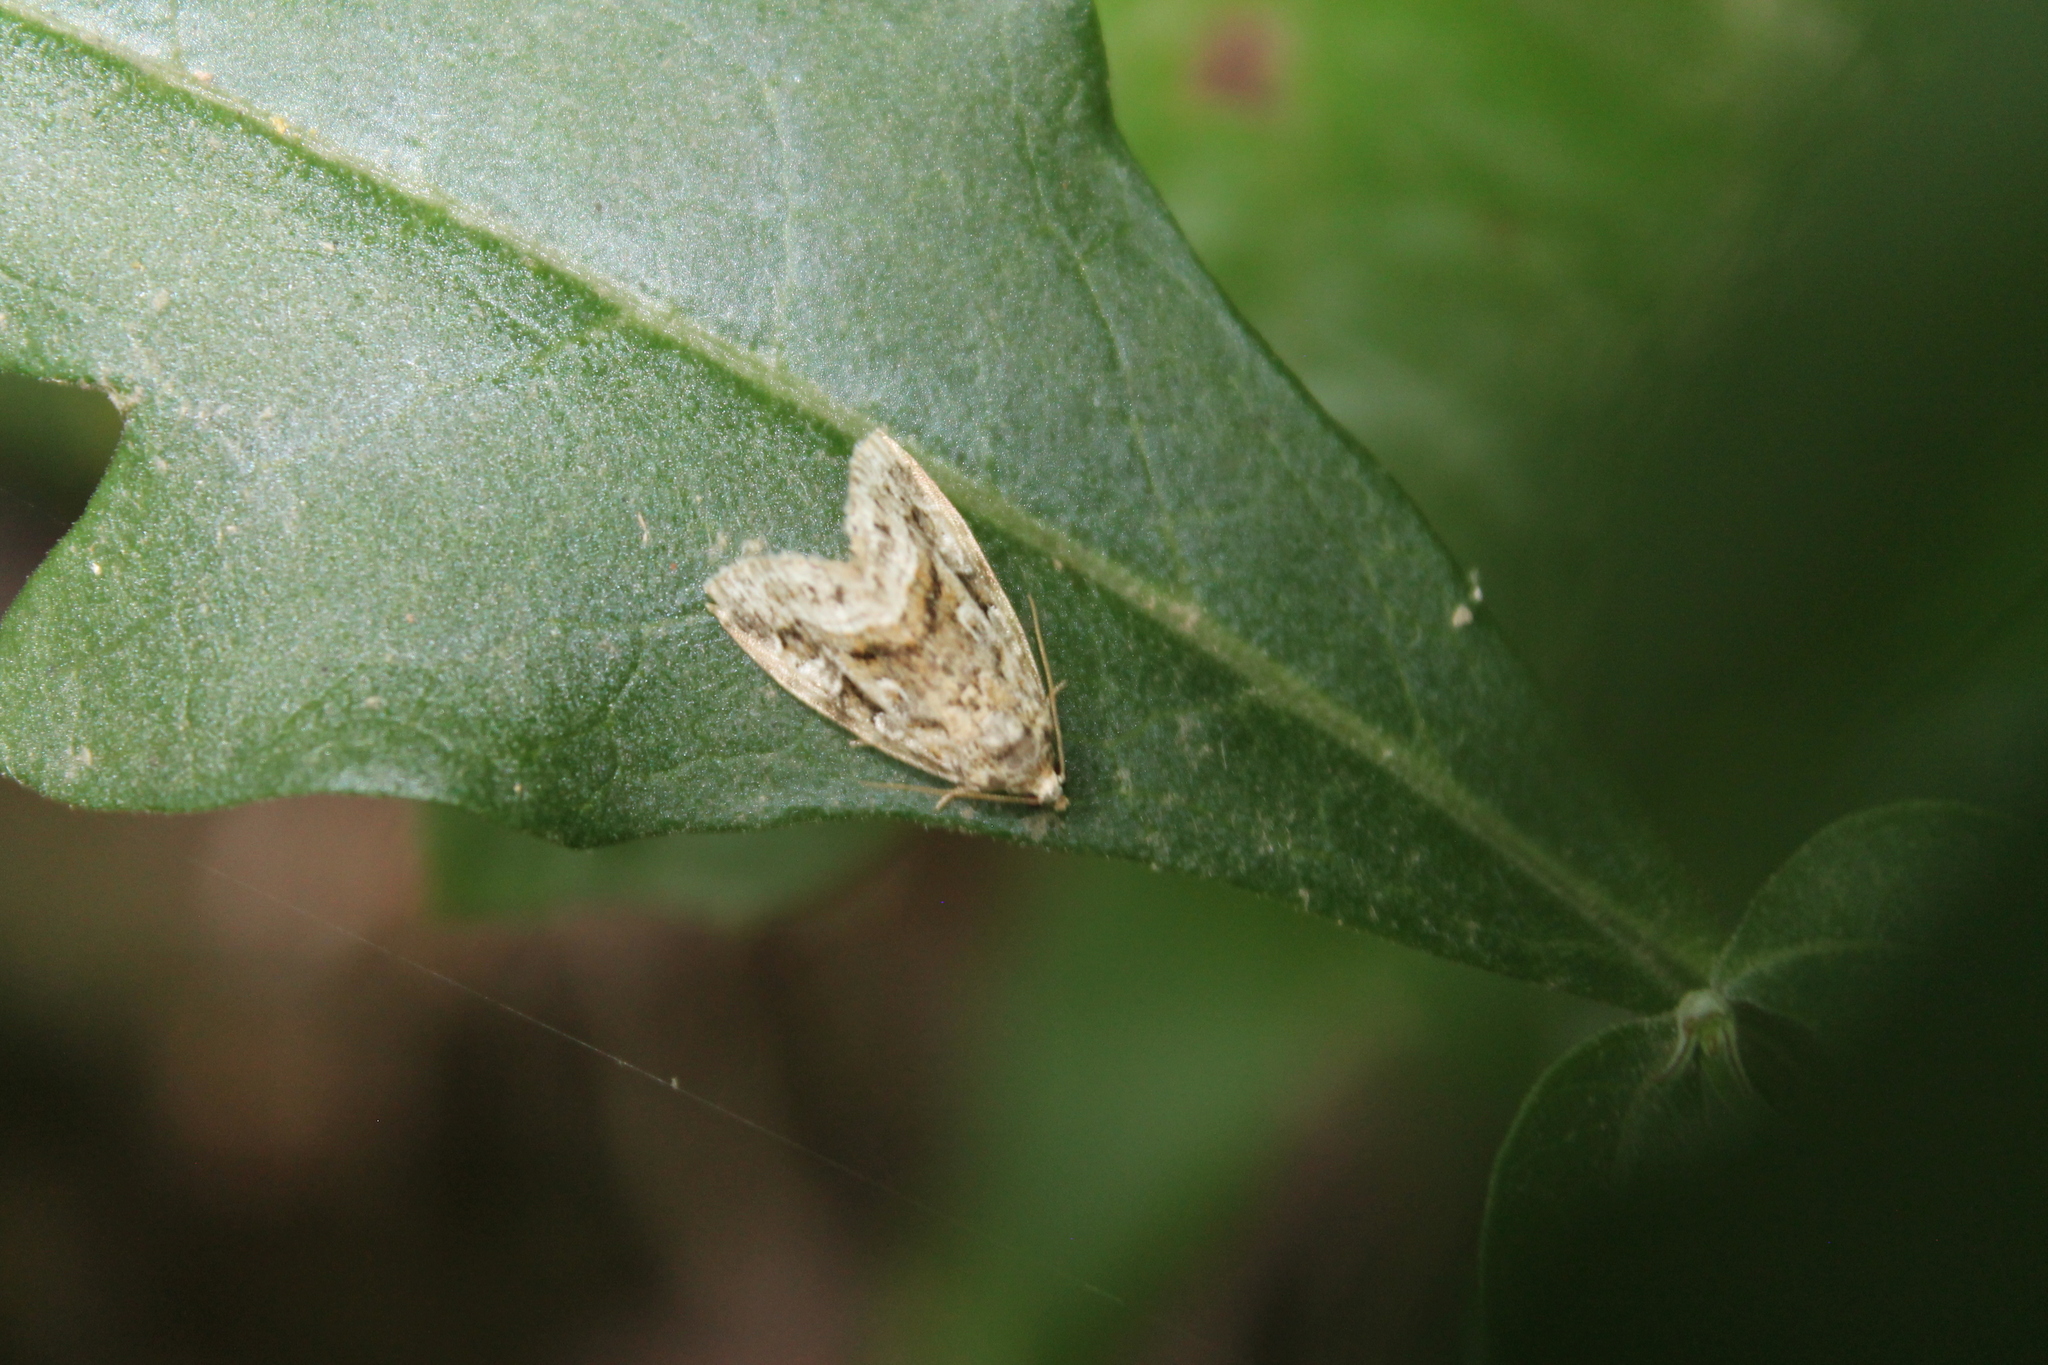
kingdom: Animalia
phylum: Arthropoda
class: Insecta
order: Lepidoptera
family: Noctuidae
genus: Protodeltote
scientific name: Protodeltote muscosula
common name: Large mossy glyph
